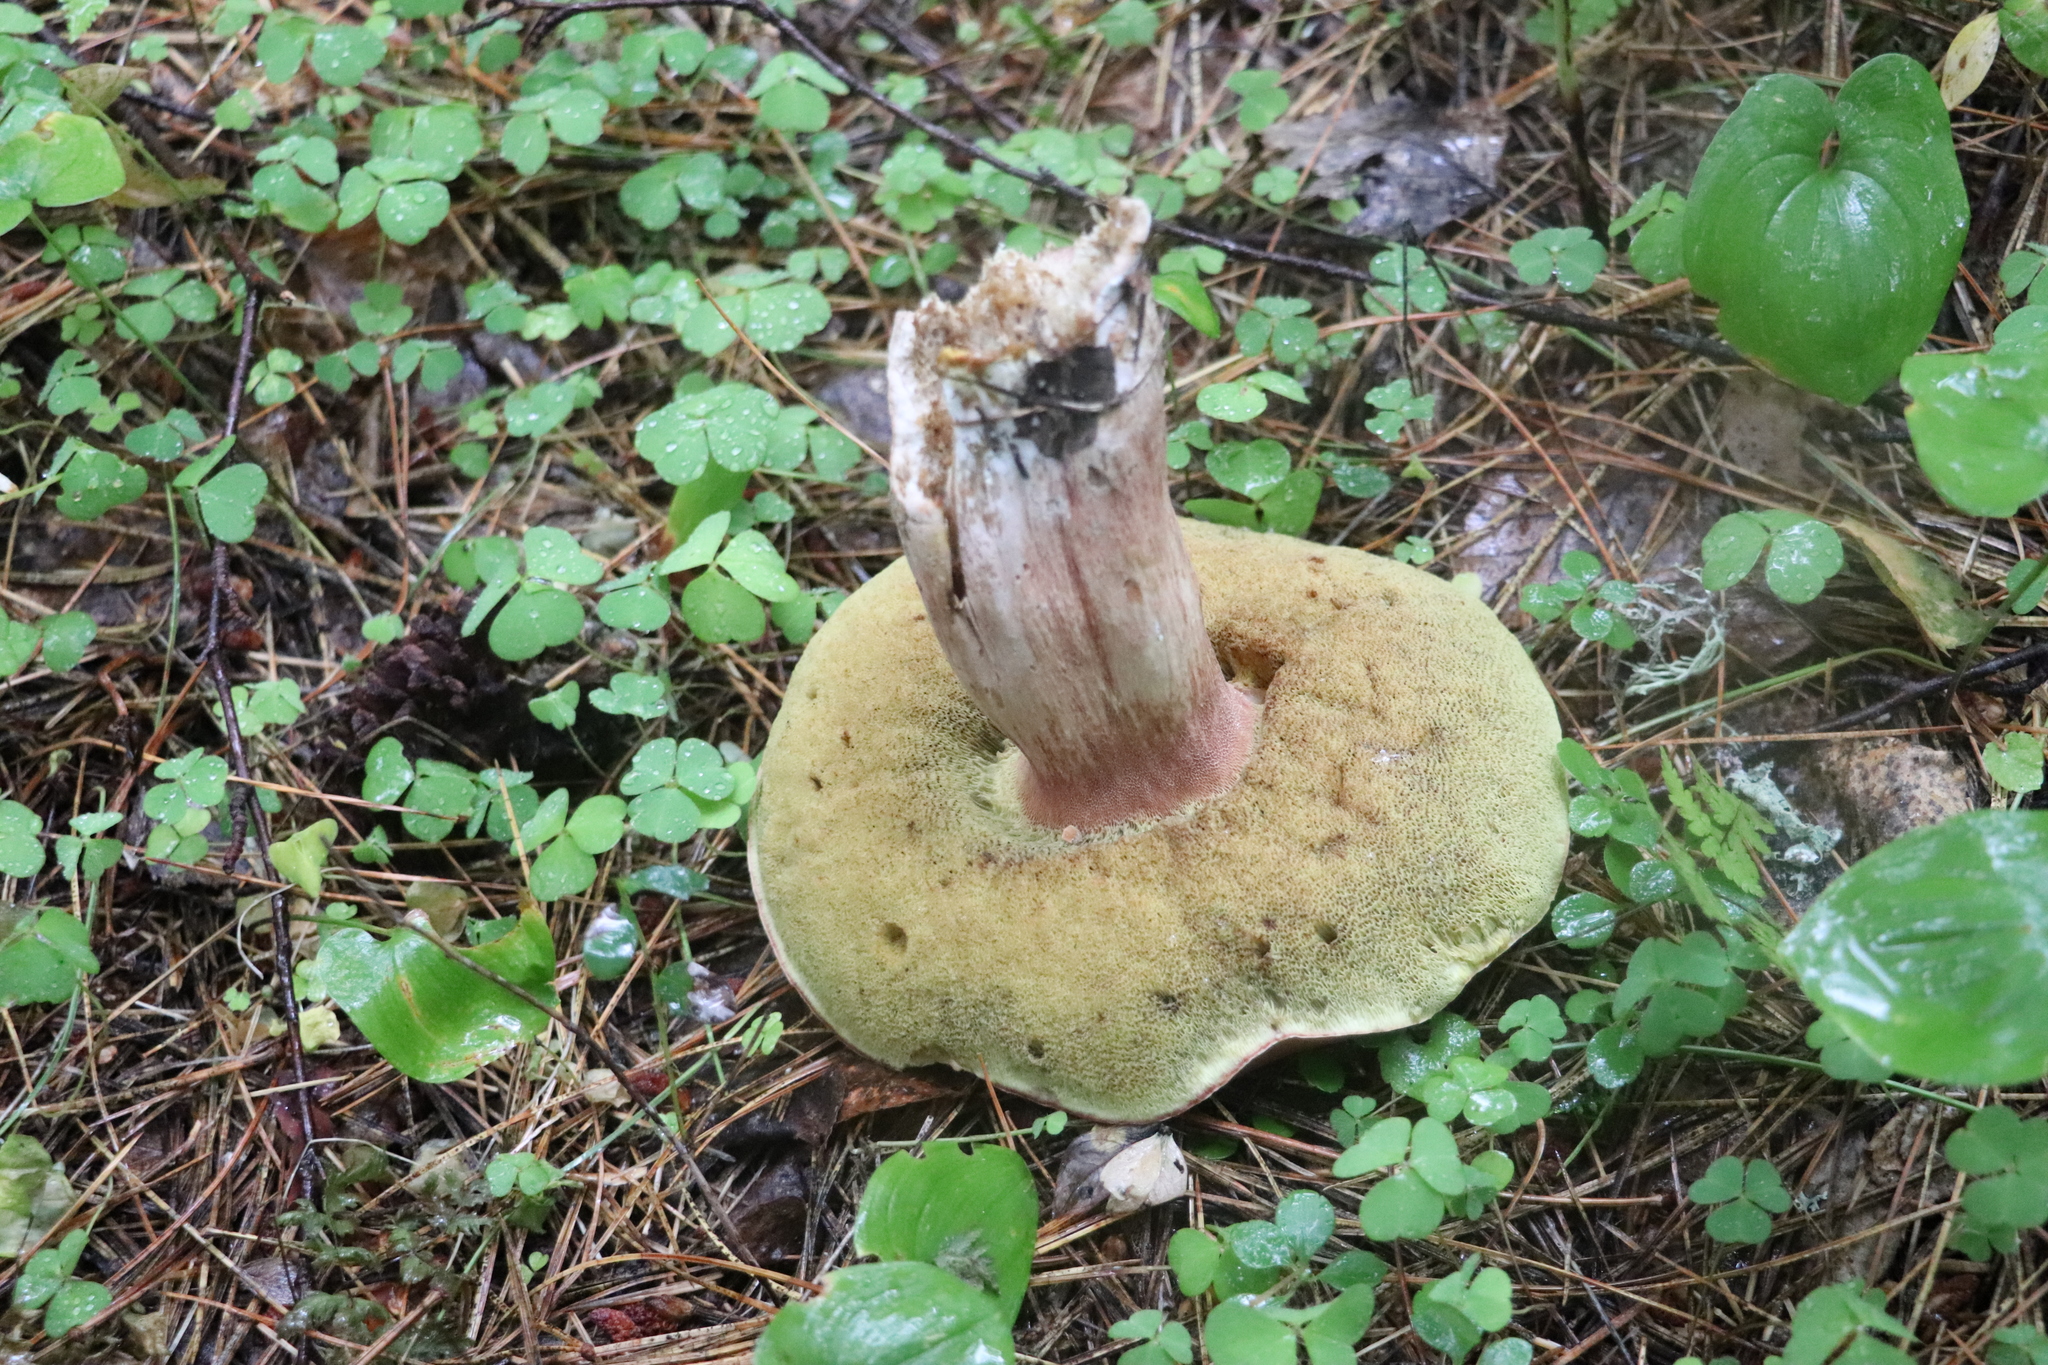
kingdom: Fungi
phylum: Basidiomycota
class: Agaricomycetes
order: Boletales
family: Boletaceae
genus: Boletus
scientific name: Boletus edulis
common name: Cep
